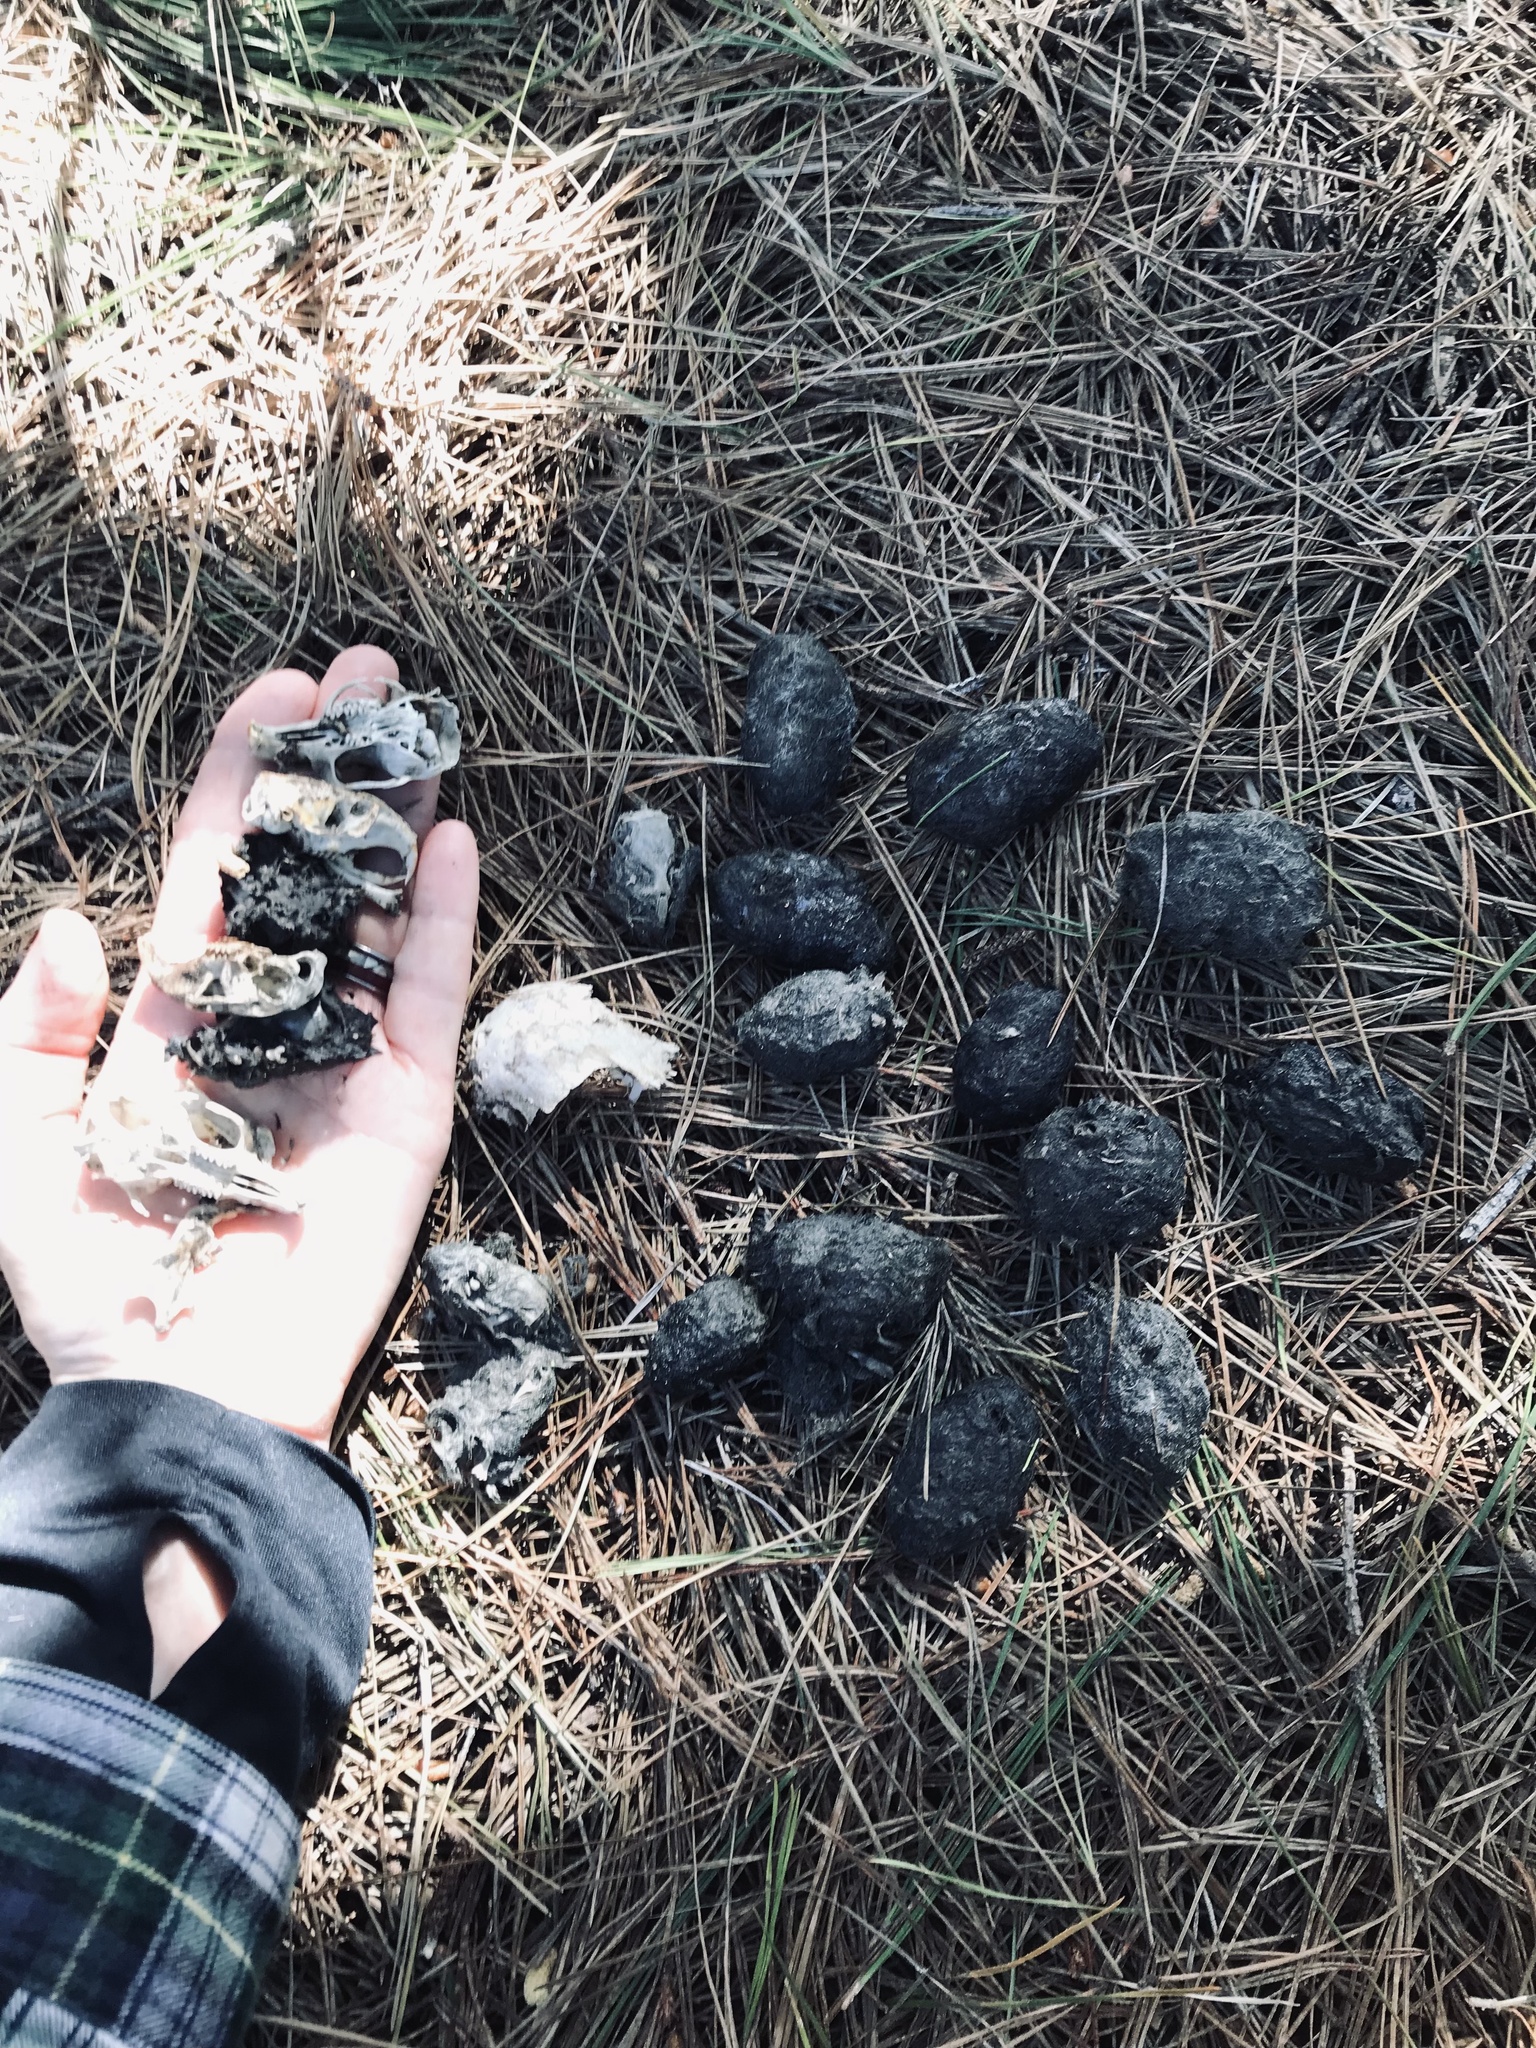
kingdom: Animalia
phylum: Chordata
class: Aves
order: Strigiformes
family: Strigidae
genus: Bubo
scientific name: Bubo virginianus
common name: Great horned owl
